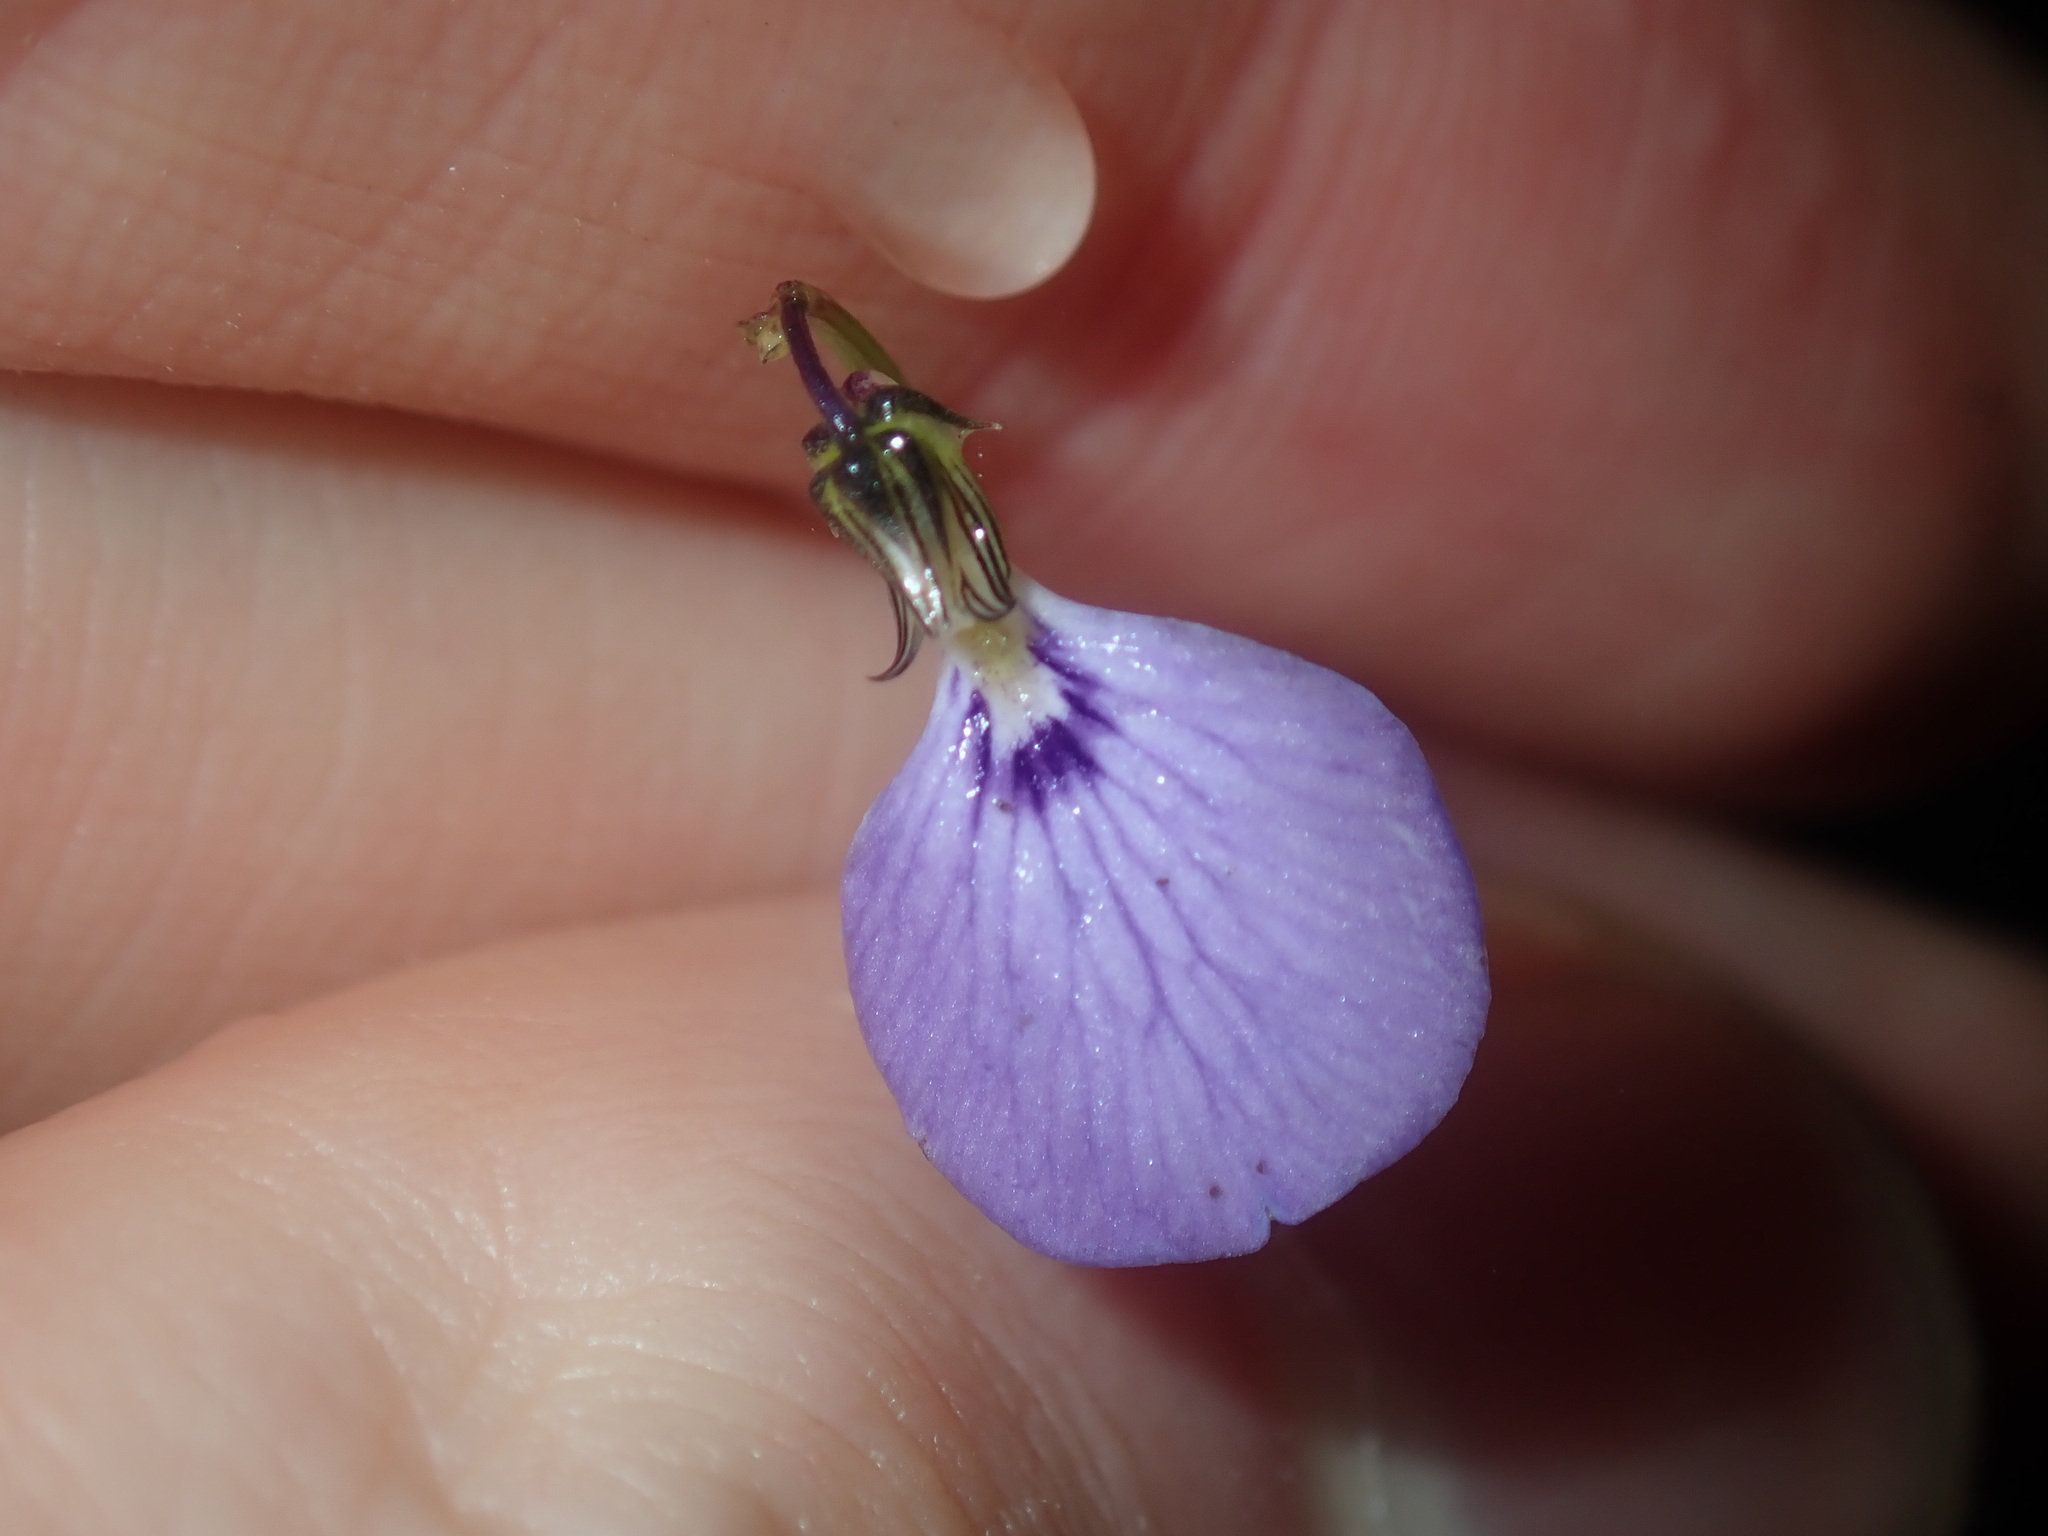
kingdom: Plantae
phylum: Tracheophyta
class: Magnoliopsida
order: Malpighiales
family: Violaceae
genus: Pigea
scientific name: Pigea monopetala
